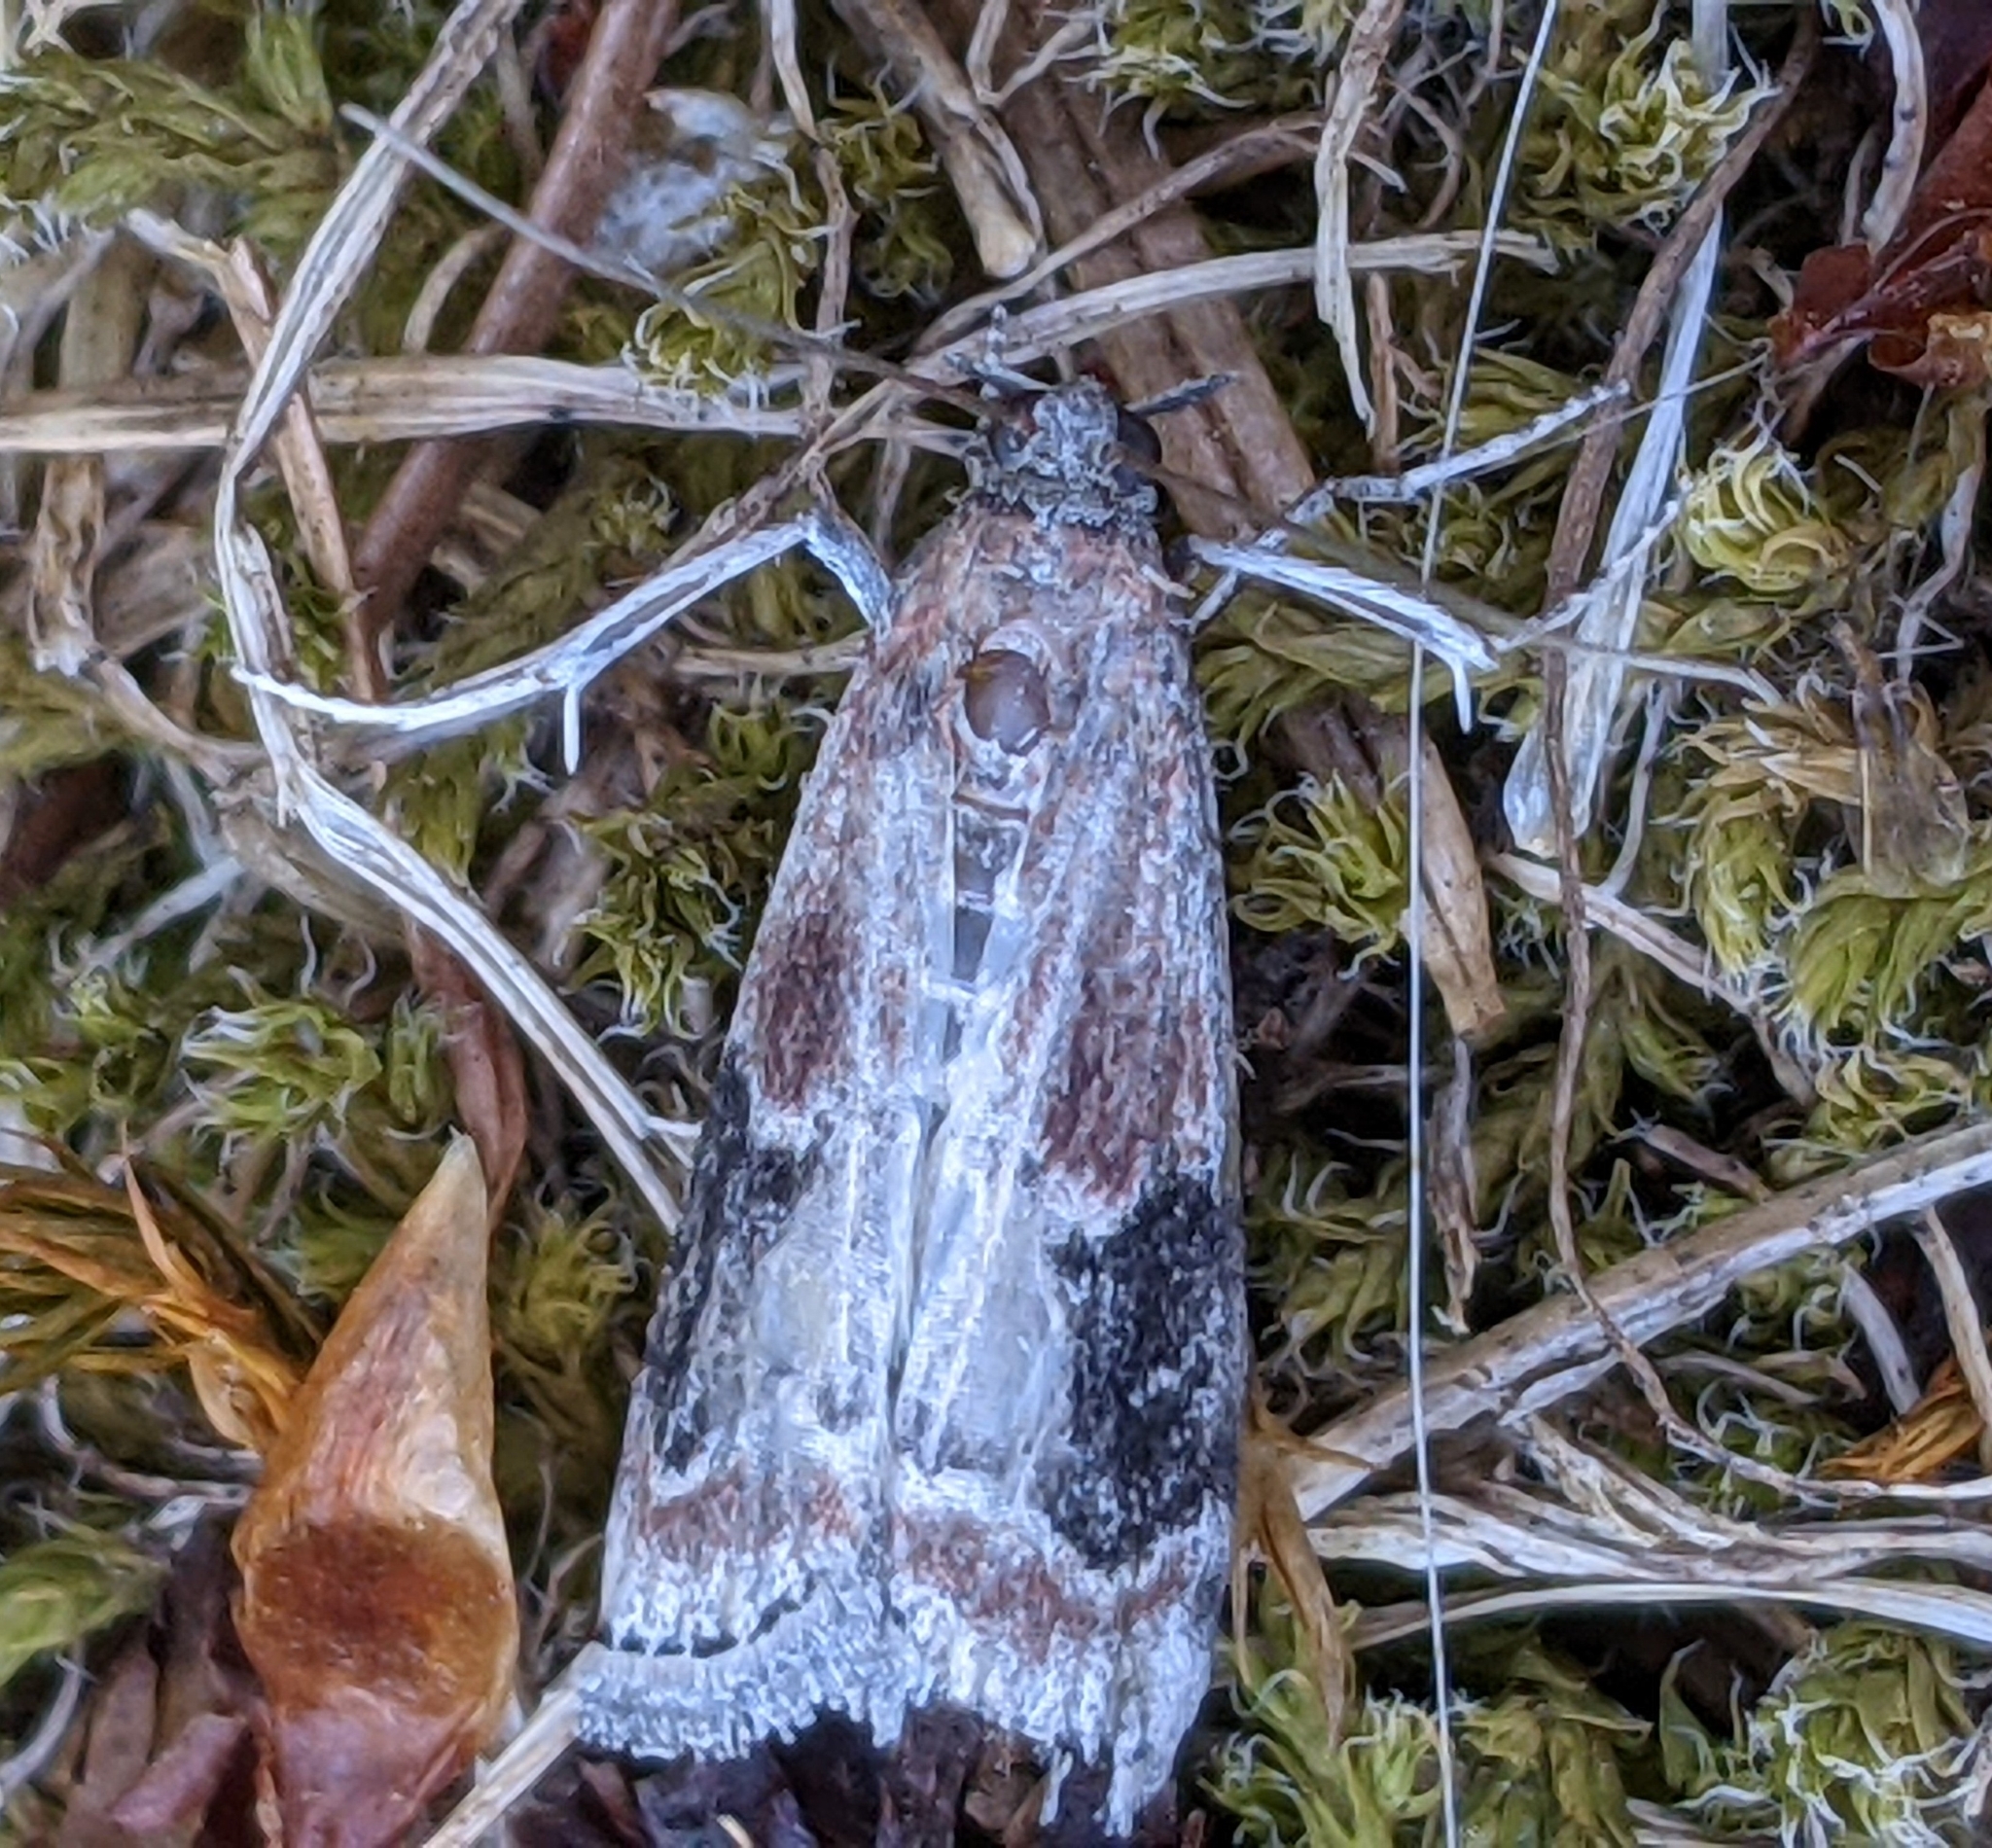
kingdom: Animalia
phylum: Arthropoda
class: Insecta
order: Lepidoptera
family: Pyralidae
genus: Euzophera
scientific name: Euzophera semifuneralis
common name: American plum borer moth
